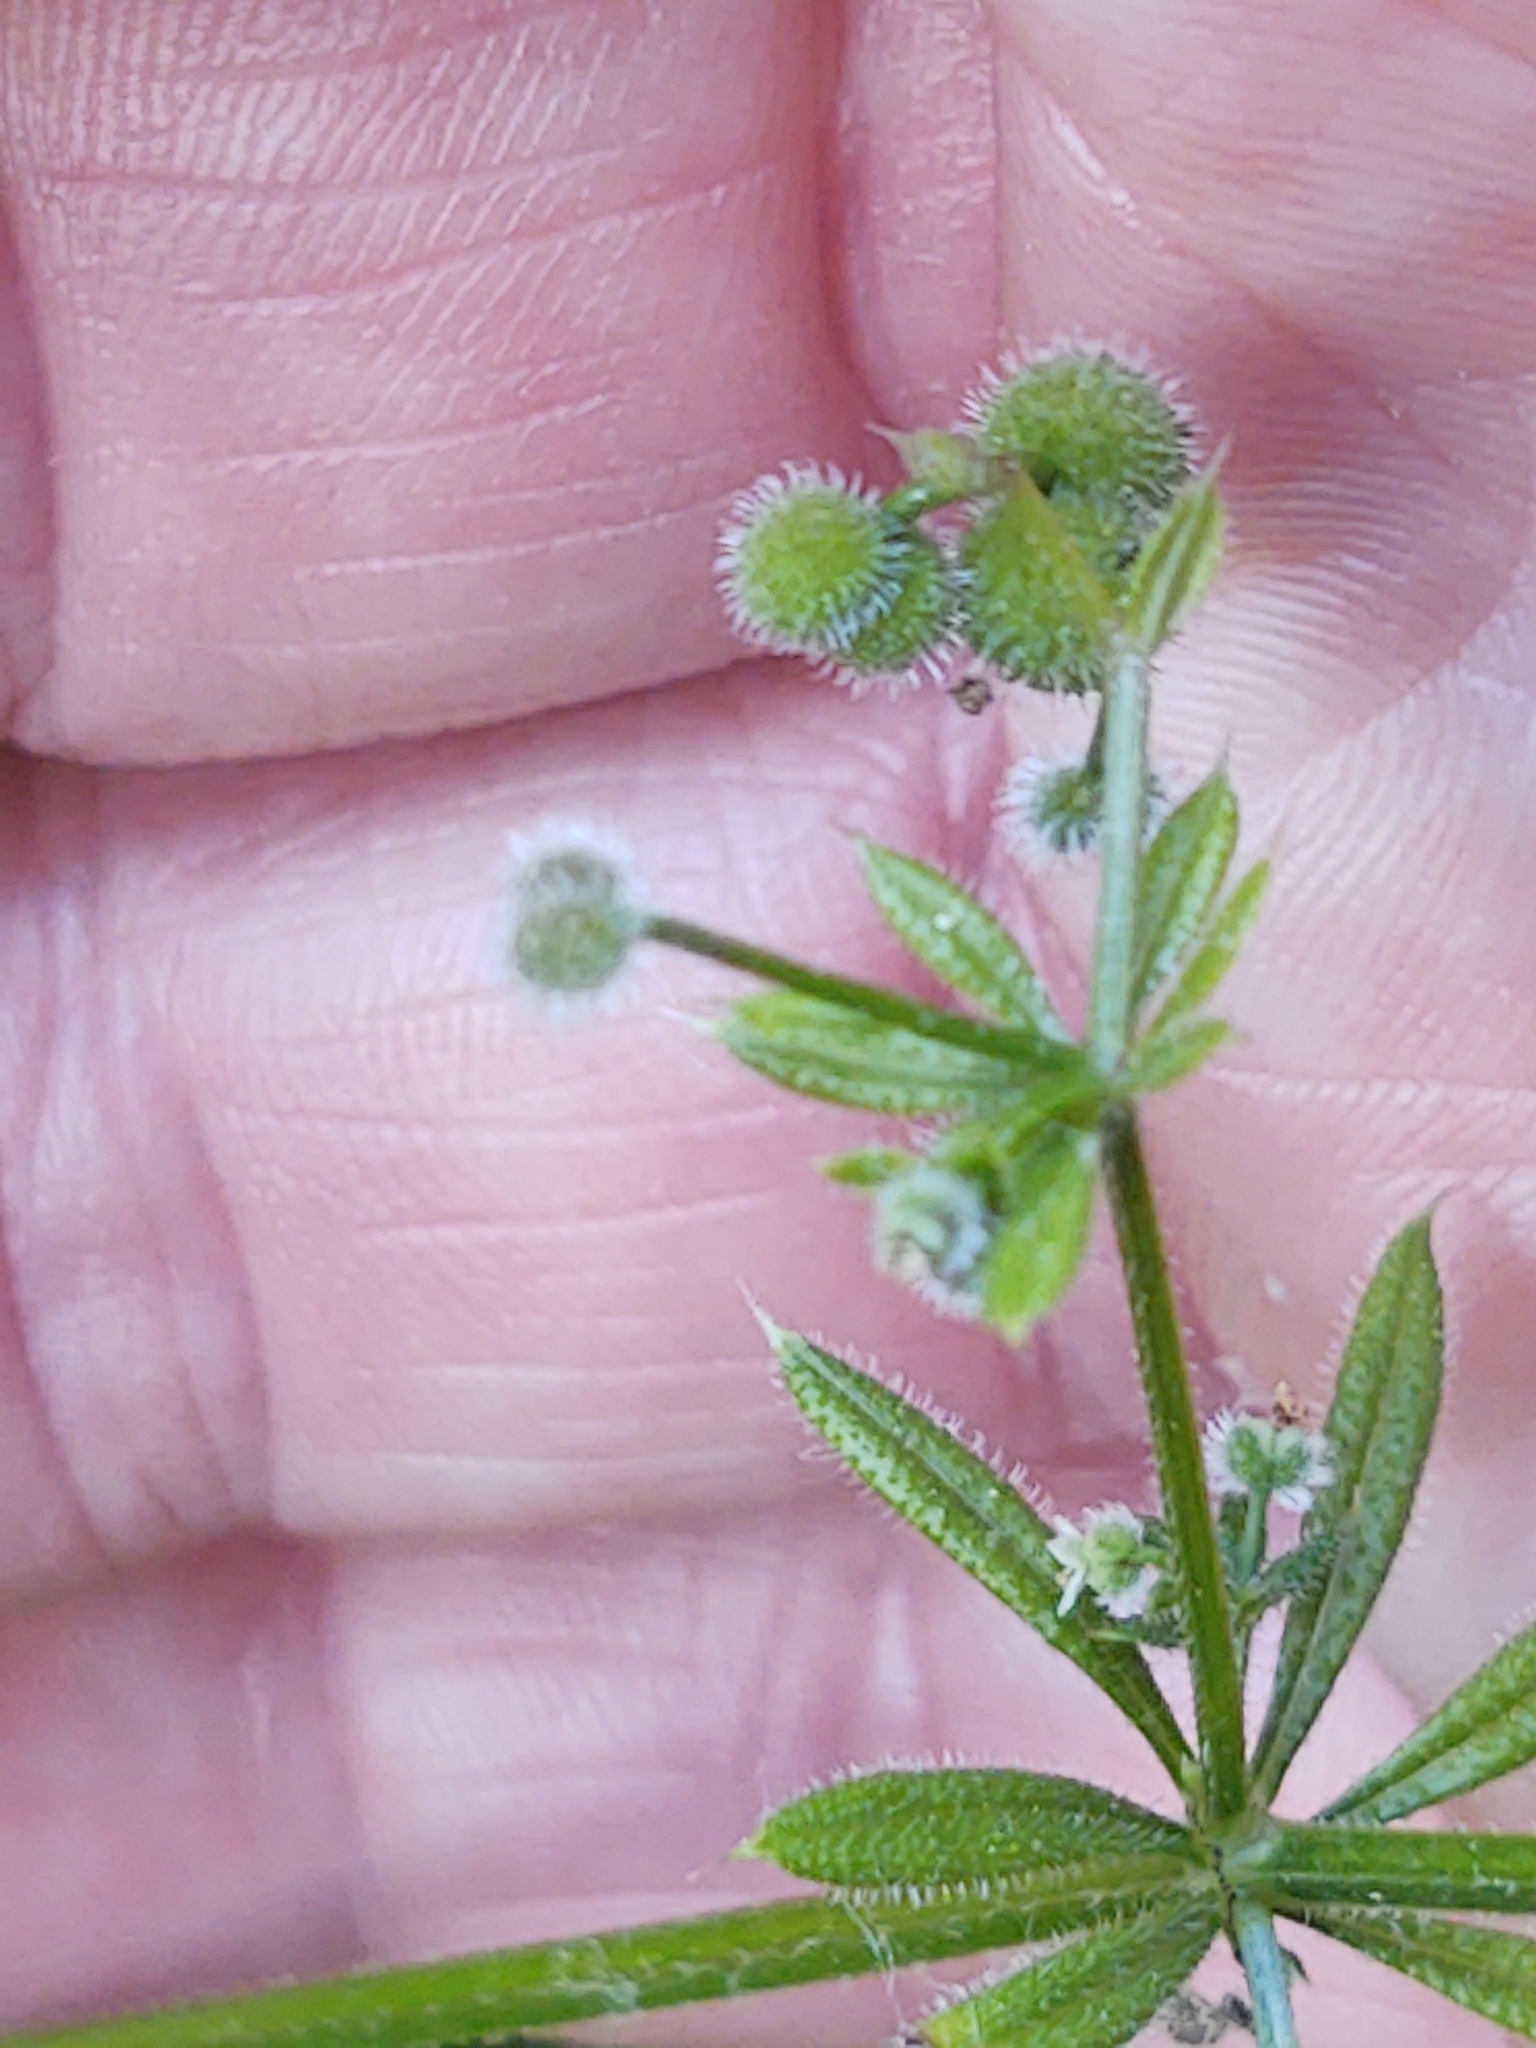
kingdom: Plantae
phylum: Tracheophyta
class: Magnoliopsida
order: Gentianales
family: Rubiaceae
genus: Galium
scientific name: Galium aparine
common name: Cleavers
